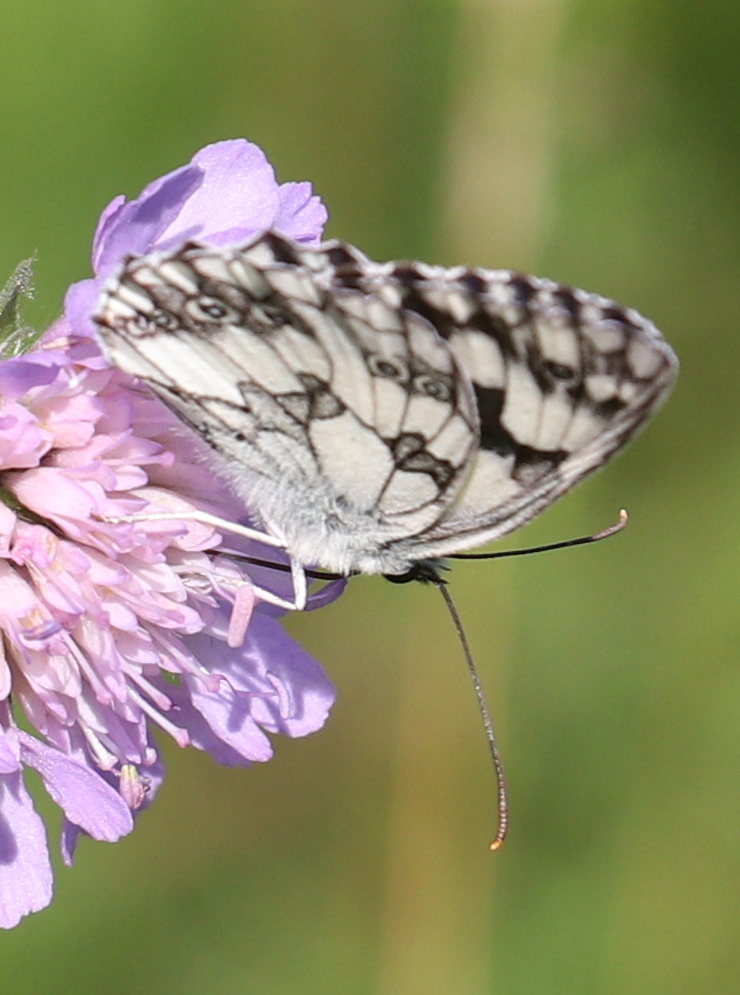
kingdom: Animalia
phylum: Arthropoda
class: Insecta
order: Lepidoptera
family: Nymphalidae
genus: Melanargia
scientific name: Melanargia galathea
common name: Marbled white
